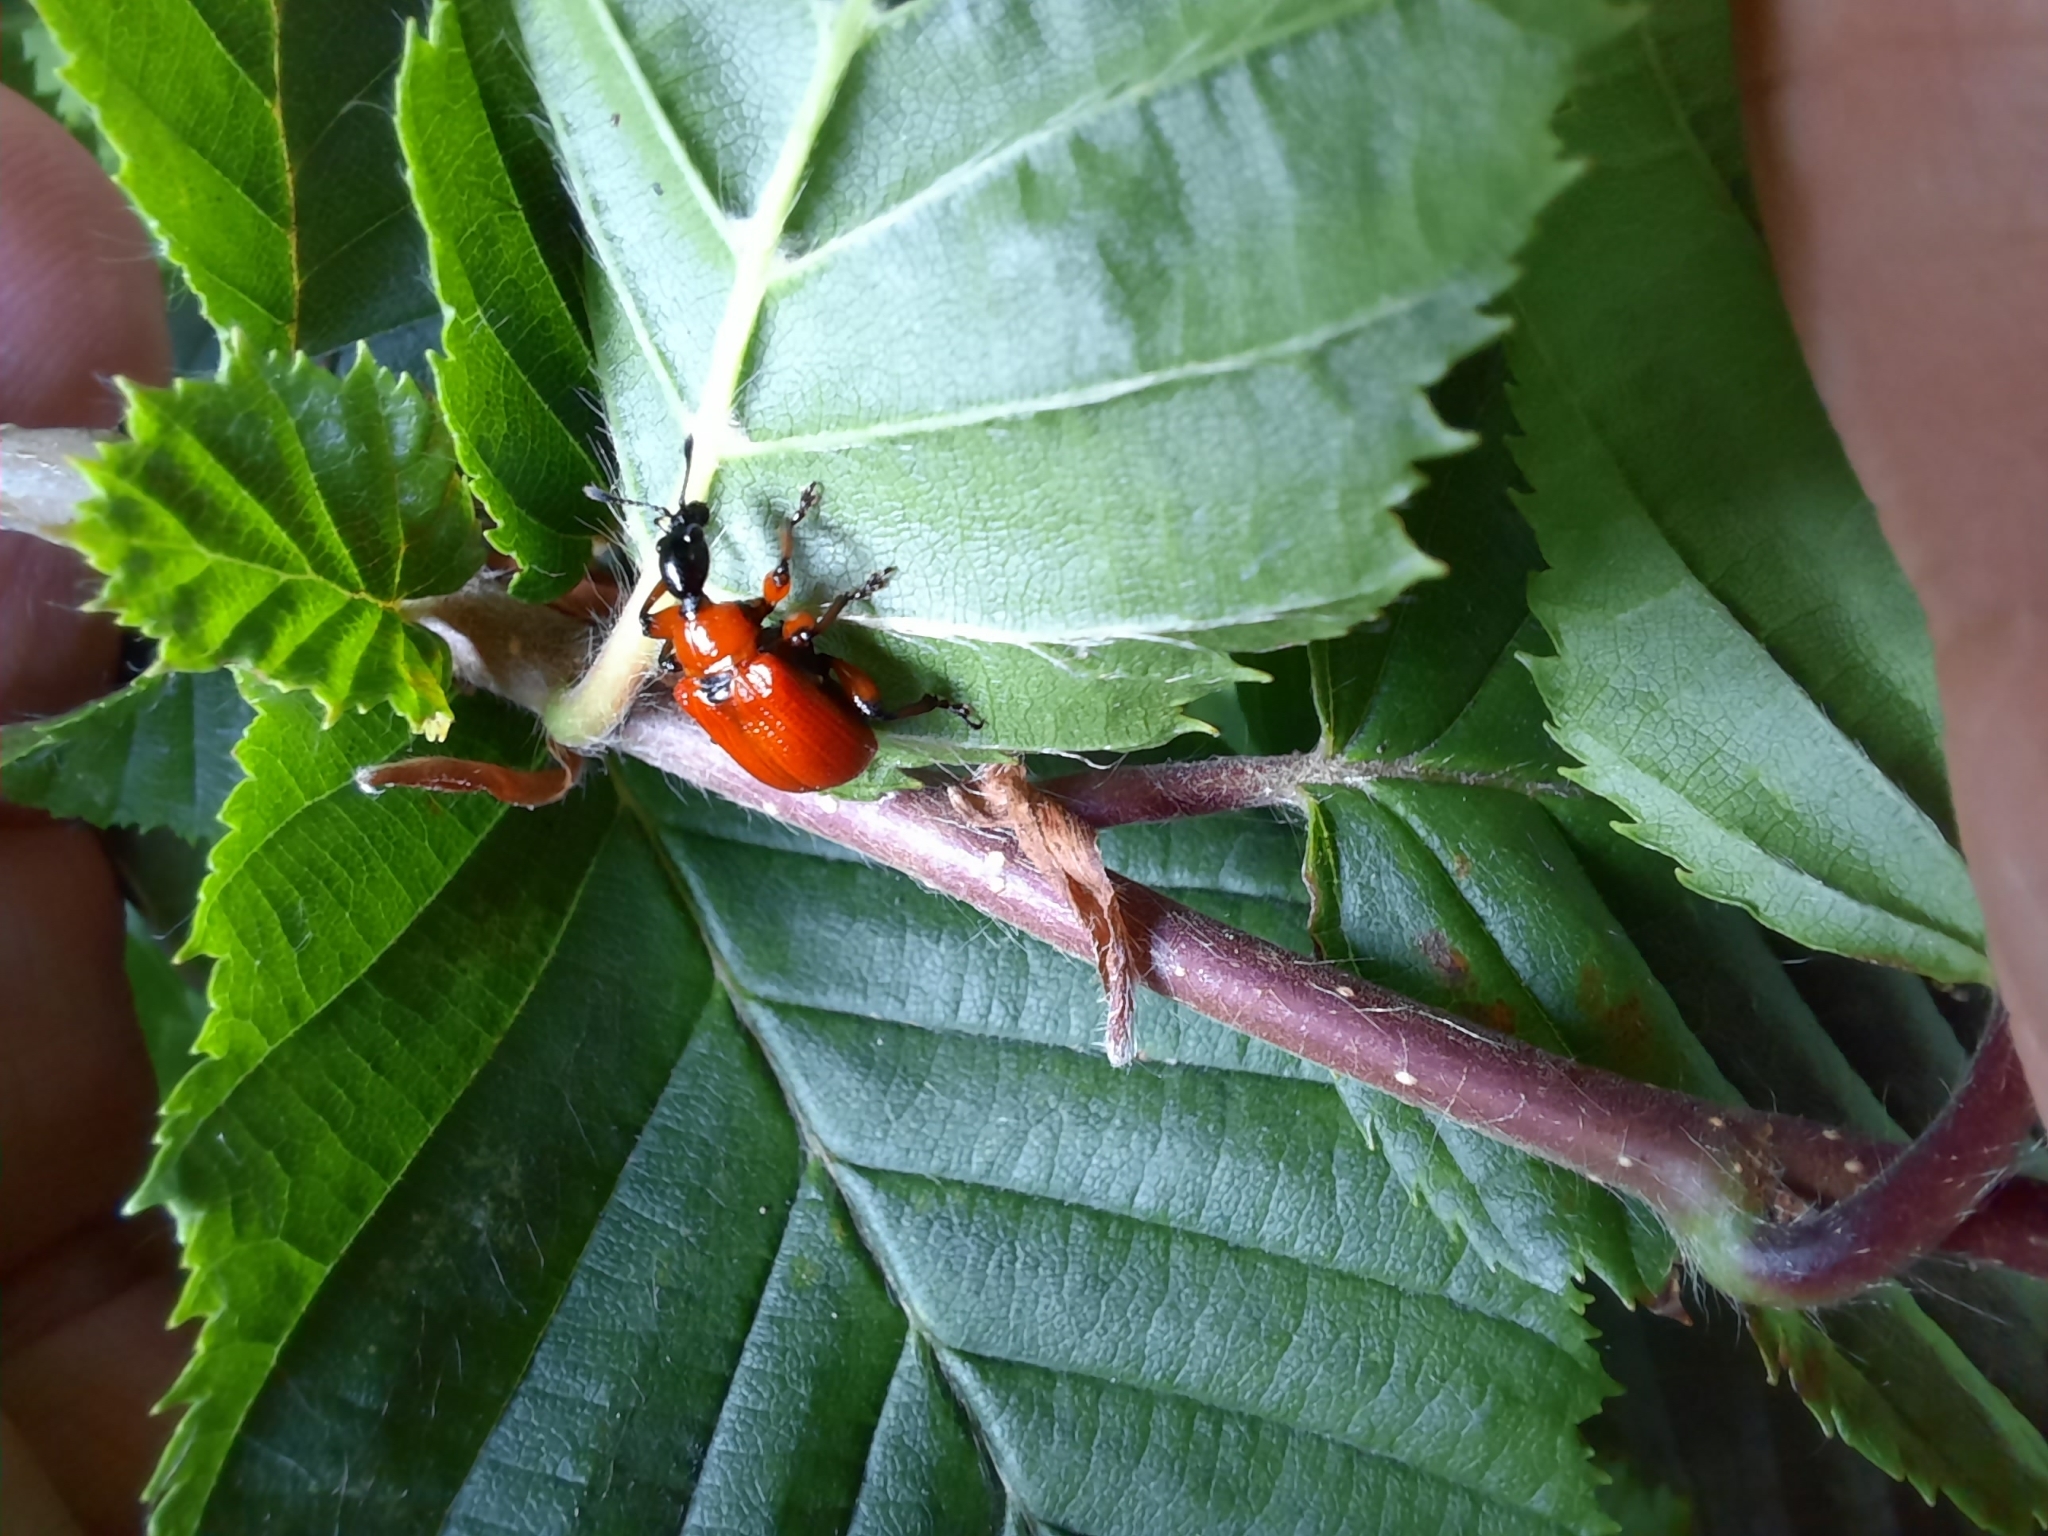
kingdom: Animalia
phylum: Arthropoda
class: Insecta
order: Coleoptera
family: Attelabidae
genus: Apoderus
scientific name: Apoderus coryli
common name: Hazel leaf roller
